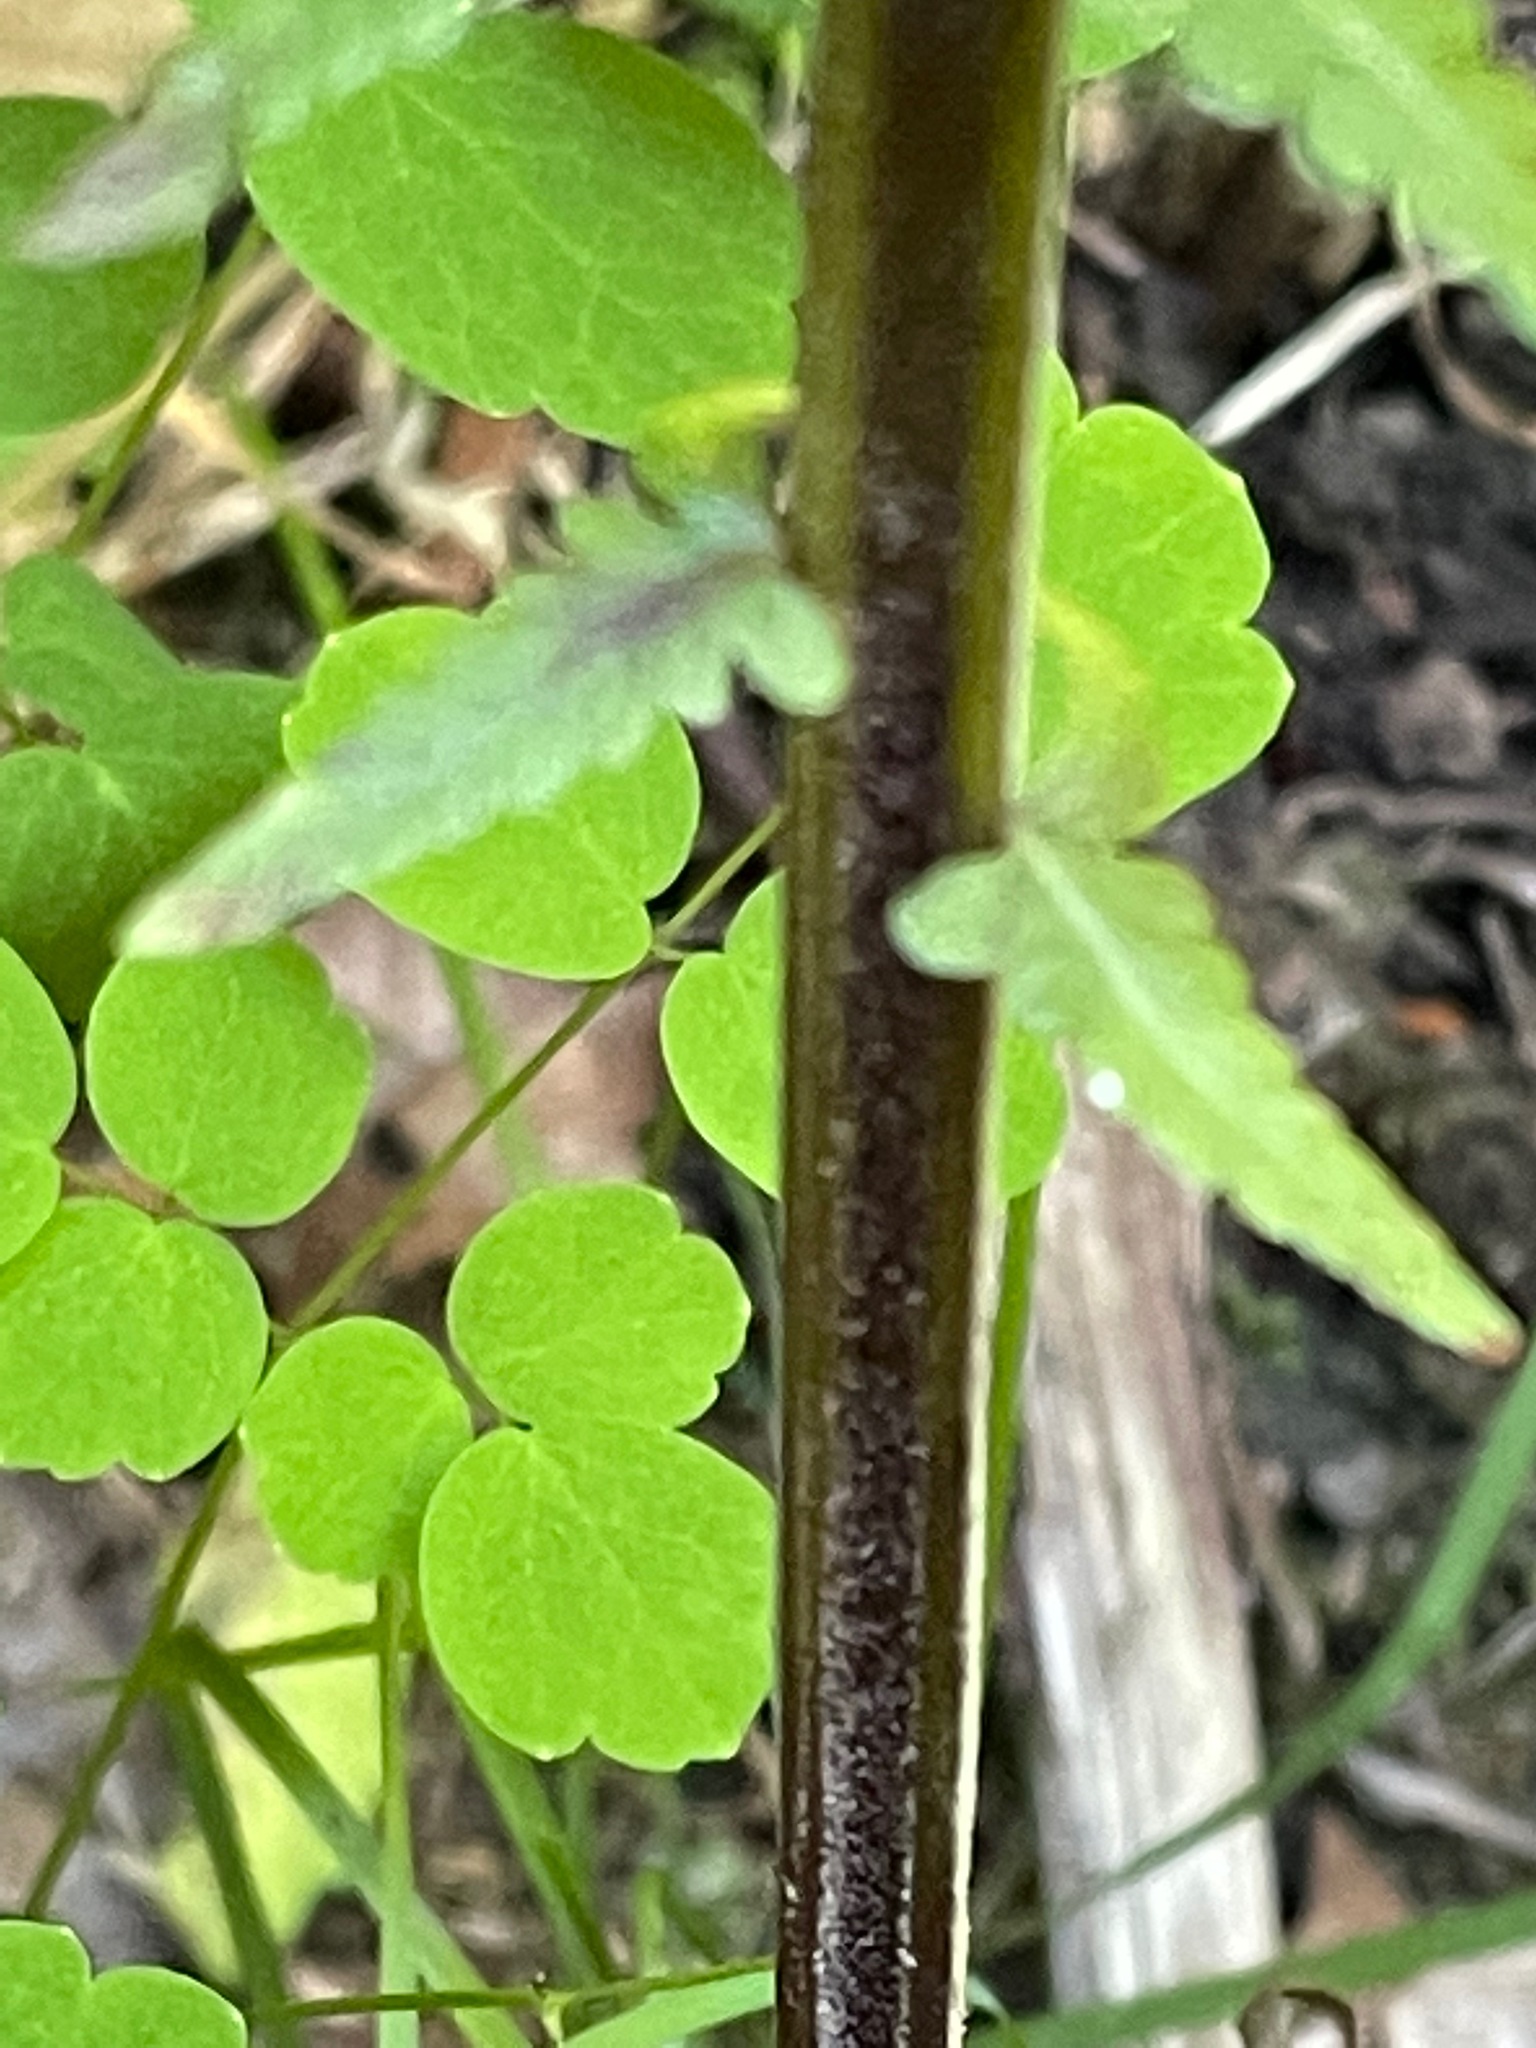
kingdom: Plantae
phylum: Tracheophyta
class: Polypodiopsida
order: Polypodiales
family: Onocleaceae
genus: Matteuccia
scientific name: Matteuccia struthiopteris
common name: Ostrich fern
